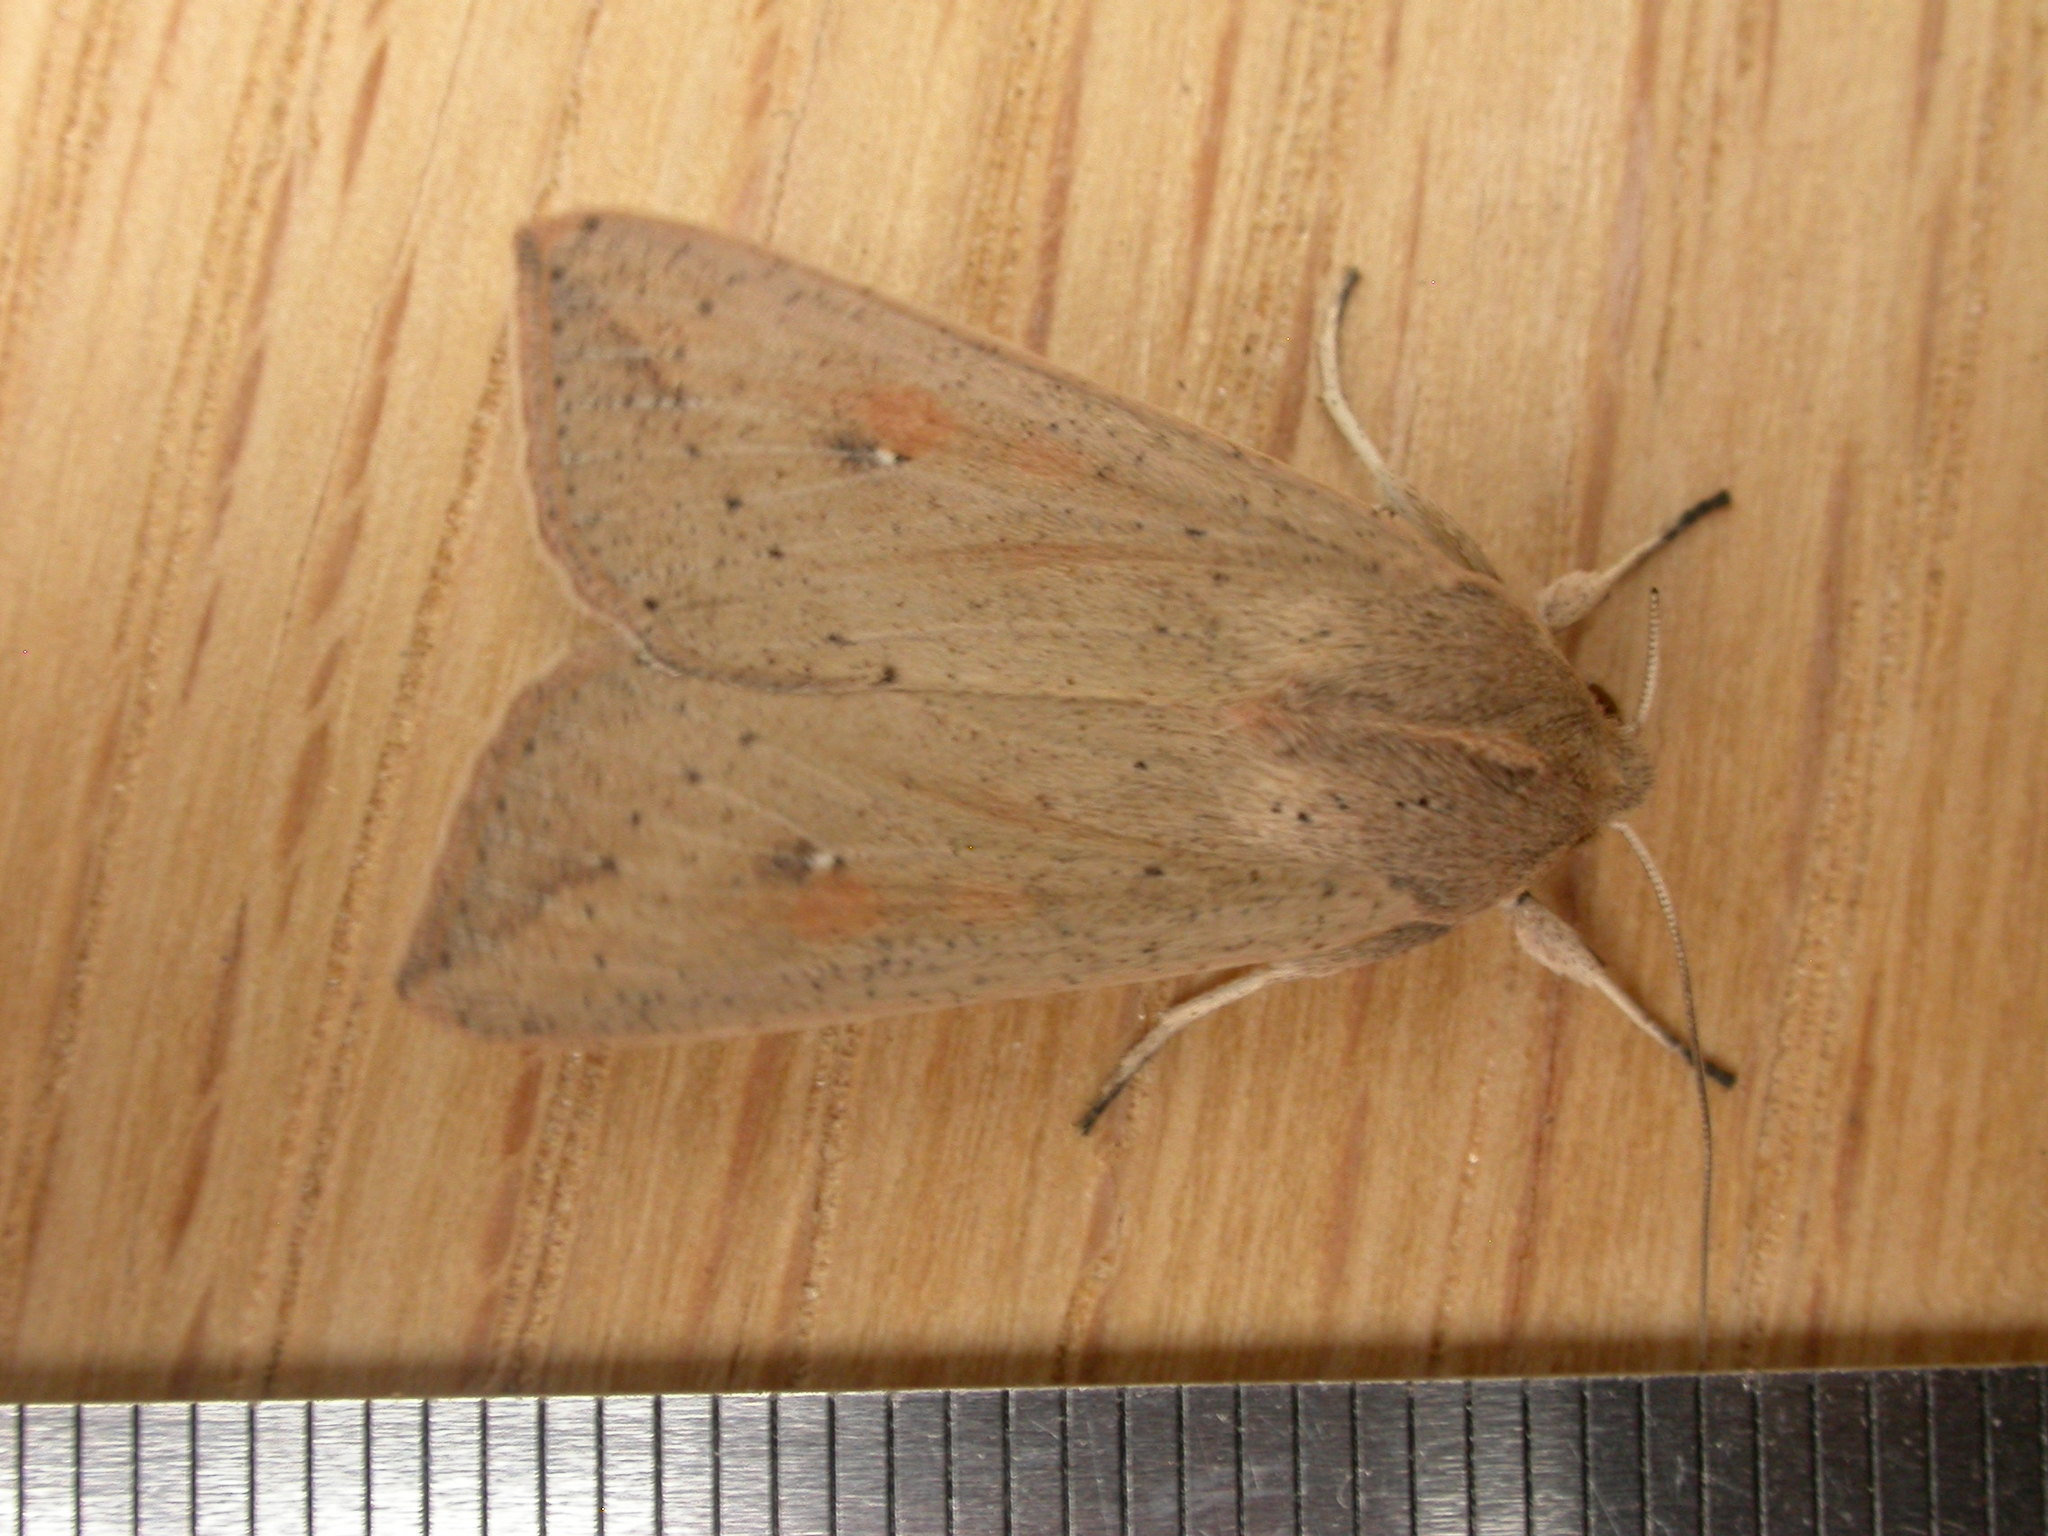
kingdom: Animalia
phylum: Arthropoda
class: Insecta
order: Lepidoptera
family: Noctuidae
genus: Mythimna
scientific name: Mythimna convecta
